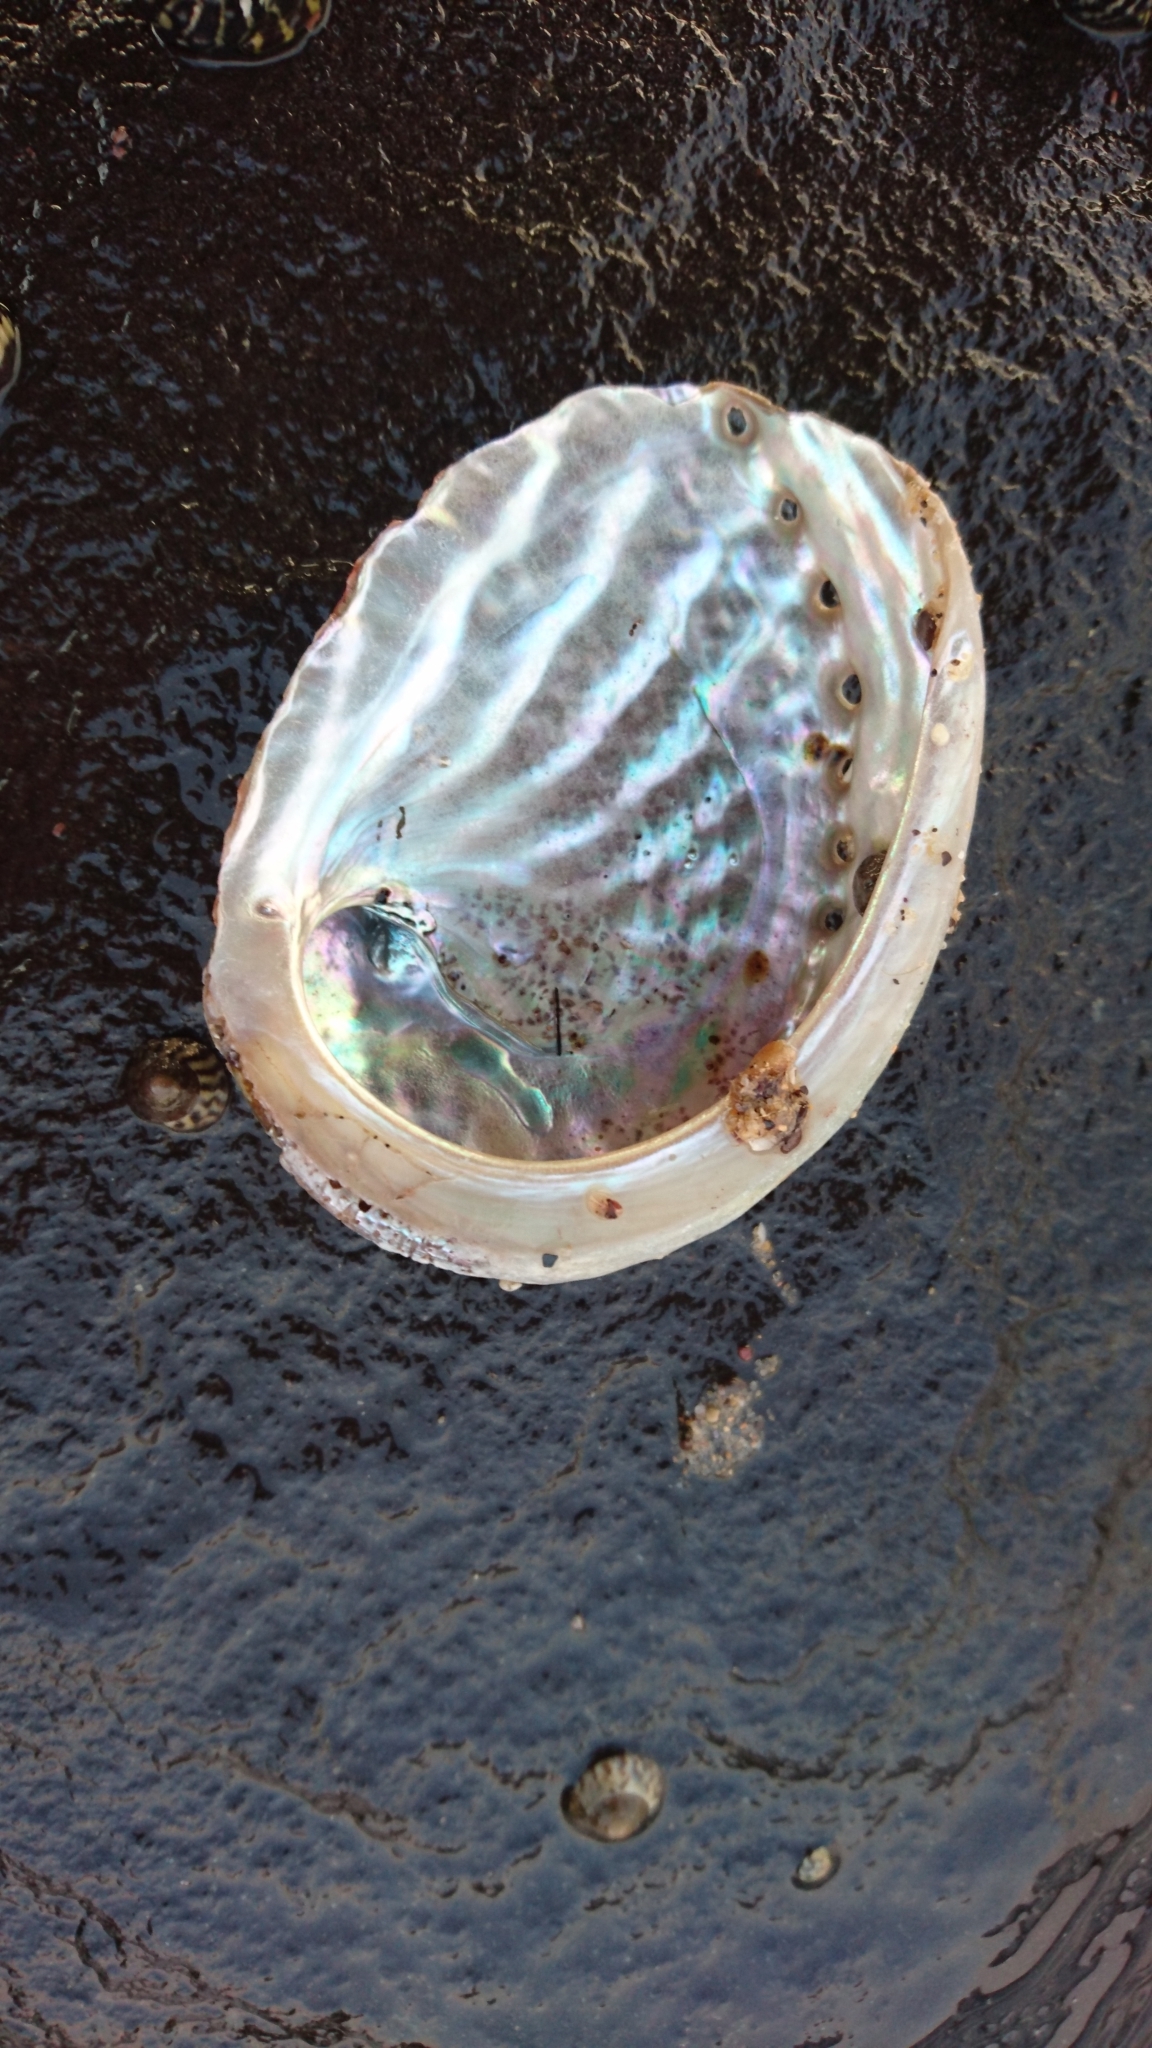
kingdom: Animalia
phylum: Mollusca
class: Gastropoda
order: Lepetellida
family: Haliotidae
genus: Haliotis
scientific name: Haliotis rubra
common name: Blacklip abalone
